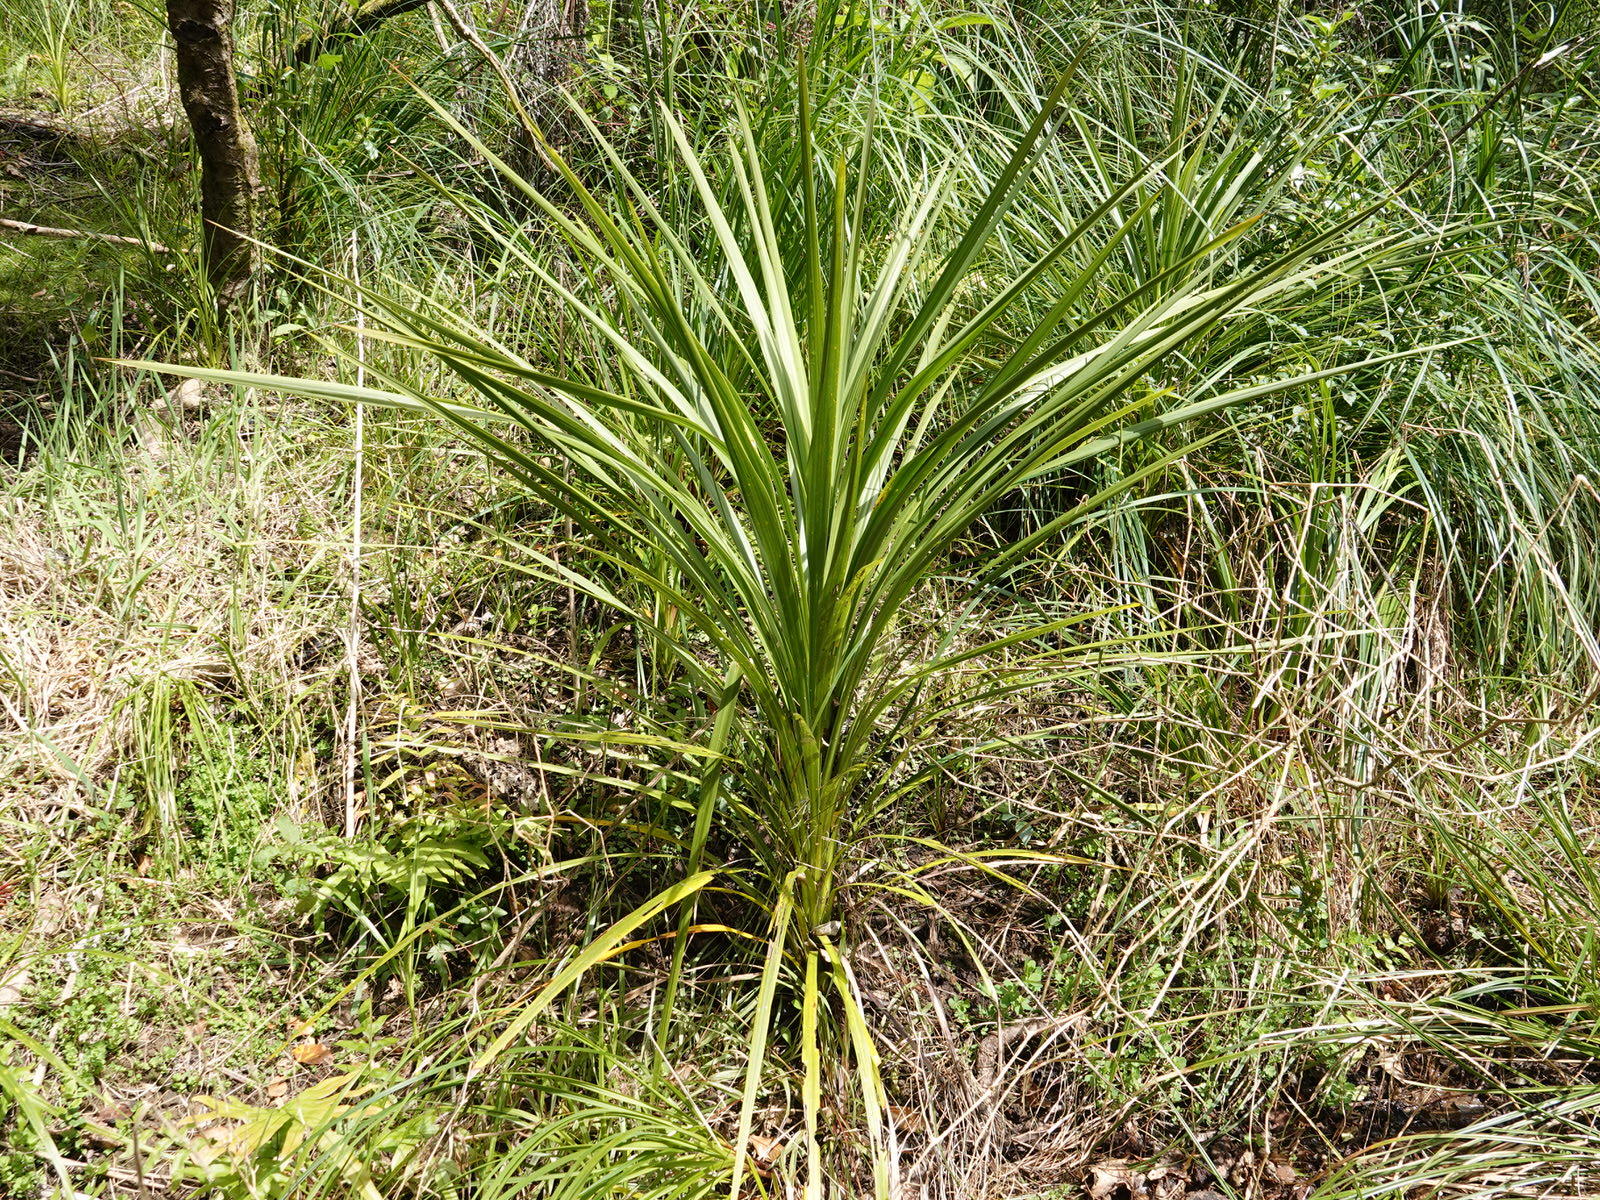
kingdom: Plantae
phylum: Tracheophyta
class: Liliopsida
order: Asparagales
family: Asparagaceae
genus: Cordyline
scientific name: Cordyline australis
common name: Cabbage-palm
